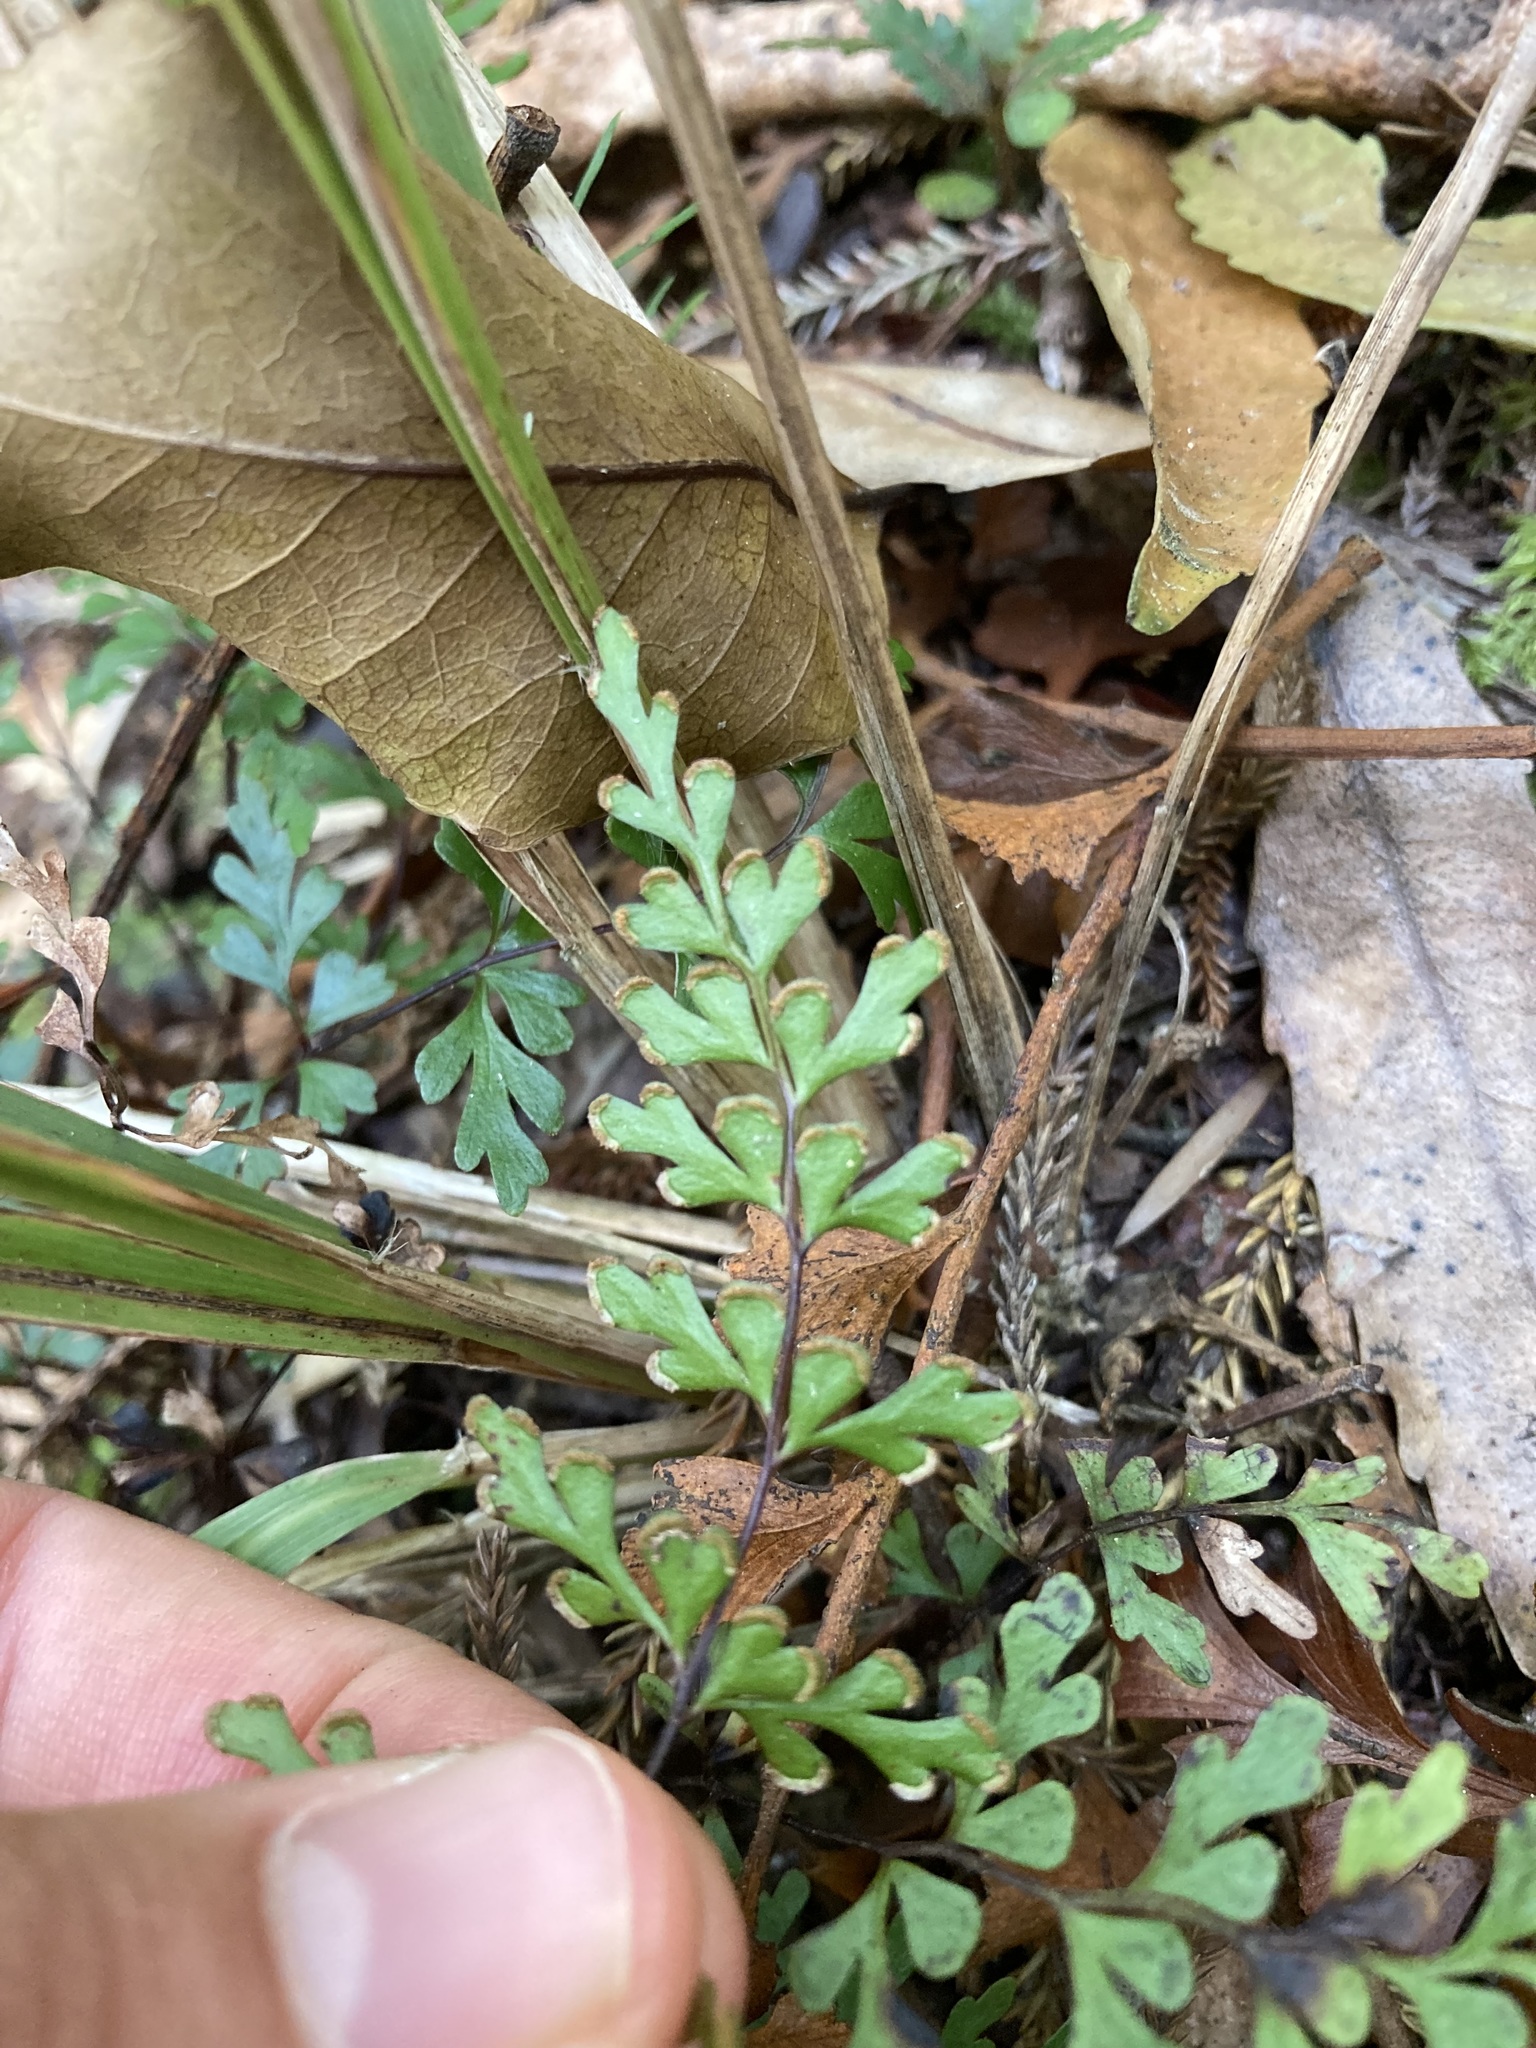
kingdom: Plantae
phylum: Tracheophyta
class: Polypodiopsida
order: Polypodiales
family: Lindsaeaceae
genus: Lindsaea
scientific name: Lindsaea trichomanoides
